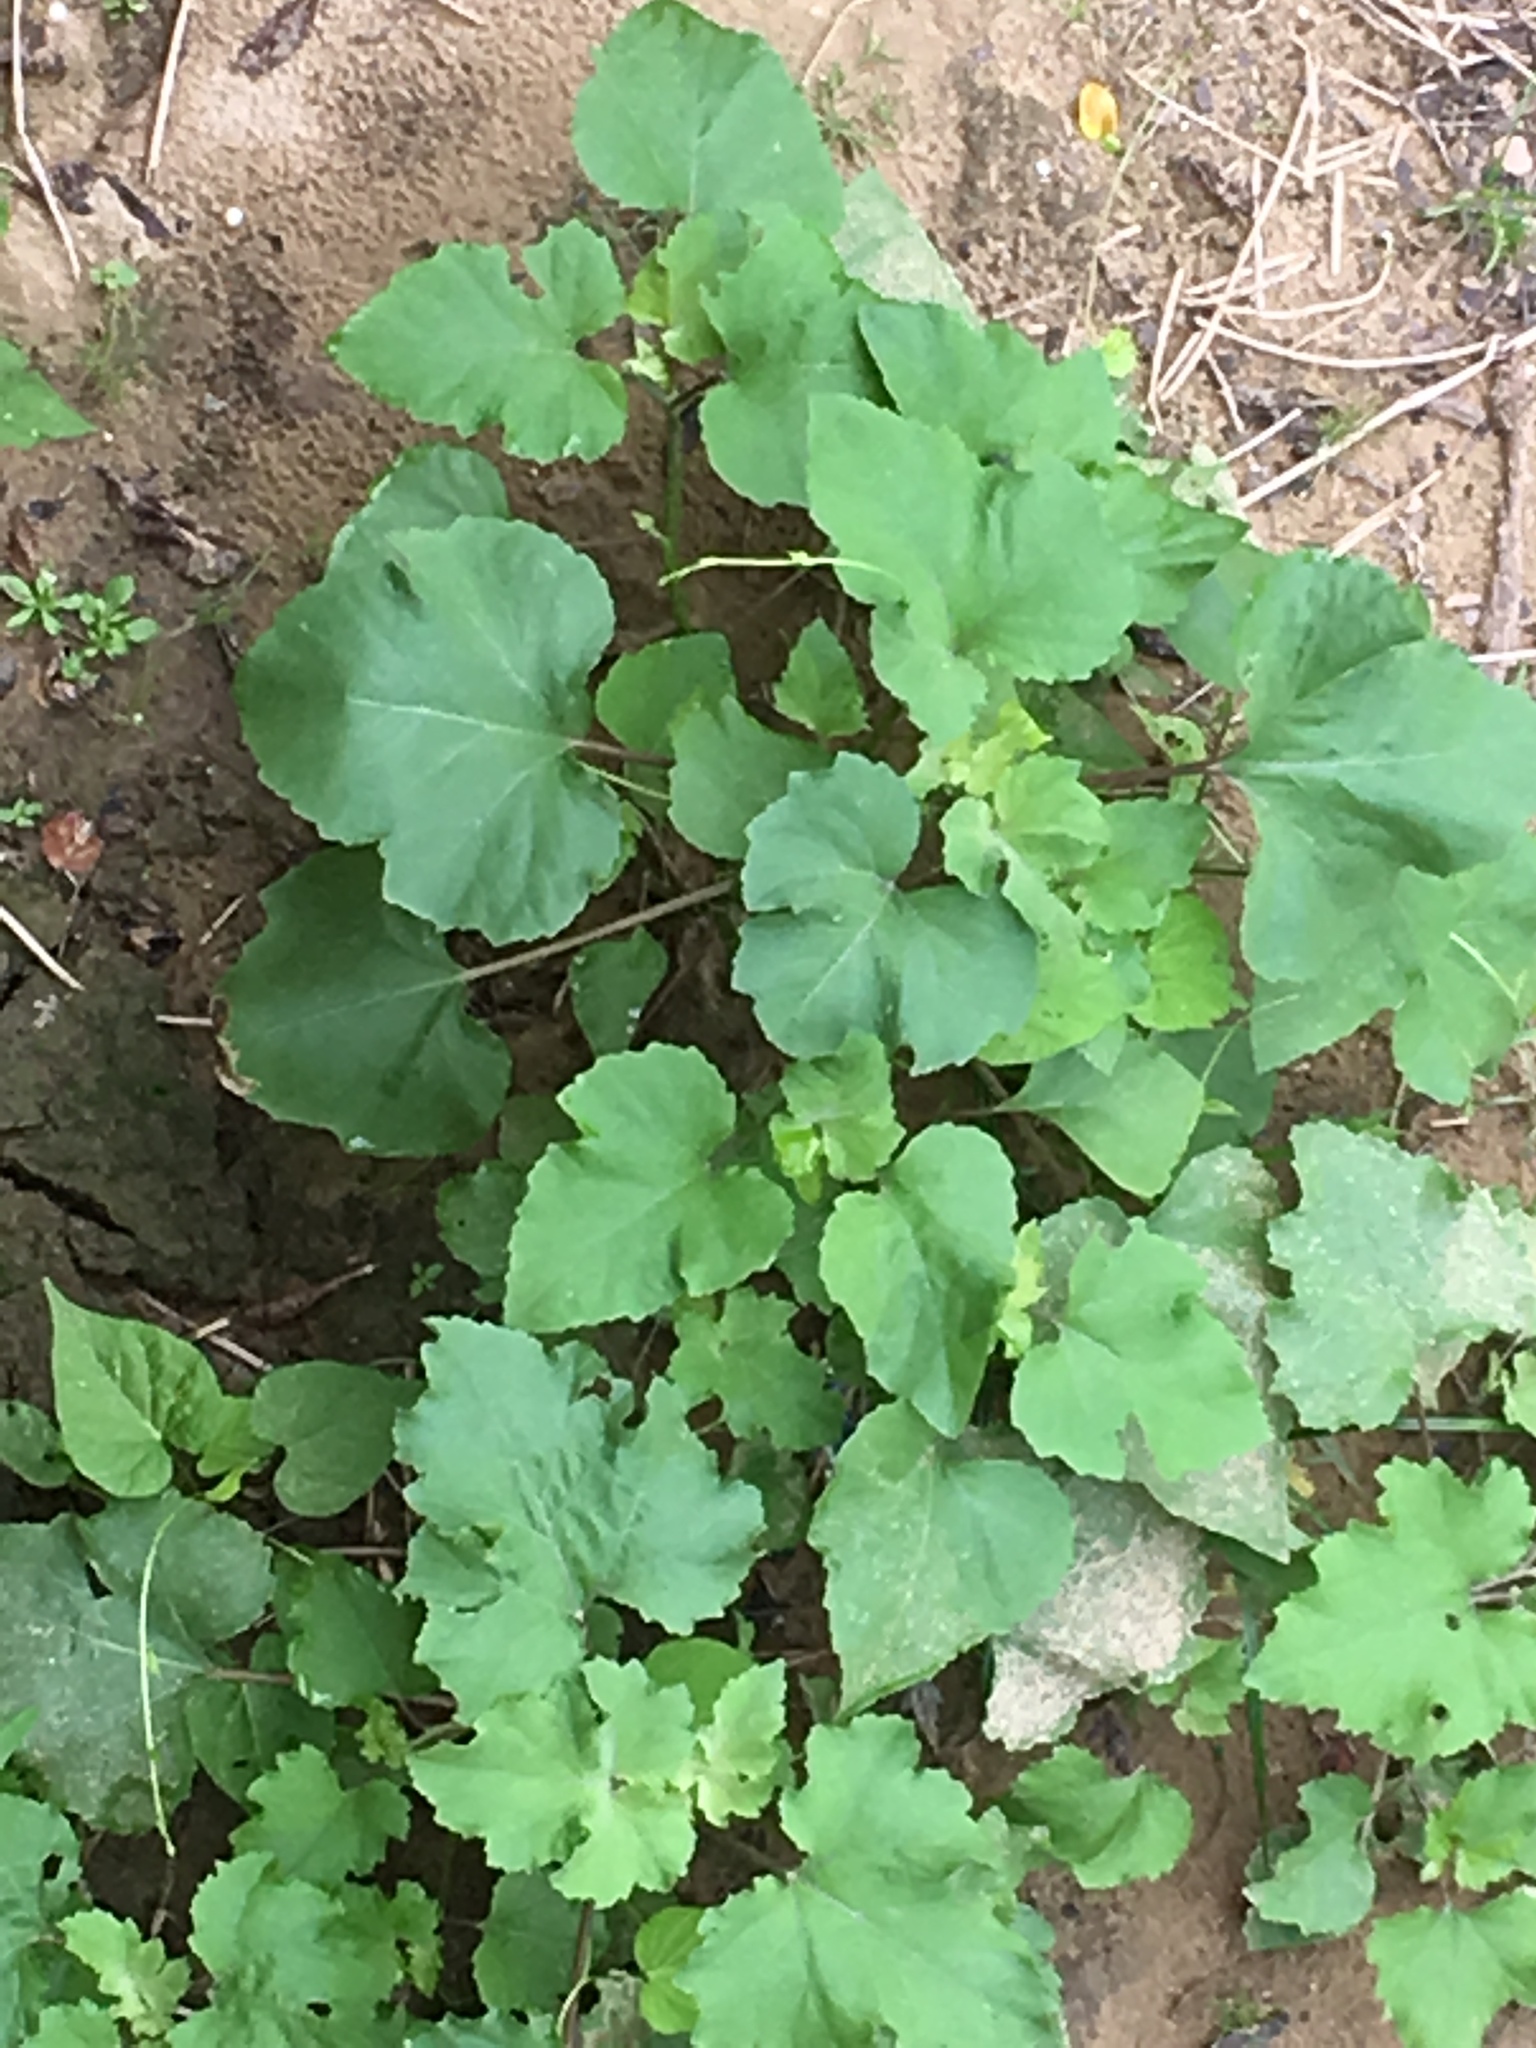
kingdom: Plantae
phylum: Tracheophyta
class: Magnoliopsida
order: Asterales
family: Asteraceae
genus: Xanthium
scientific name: Xanthium strumarium
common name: Rough cocklebur
